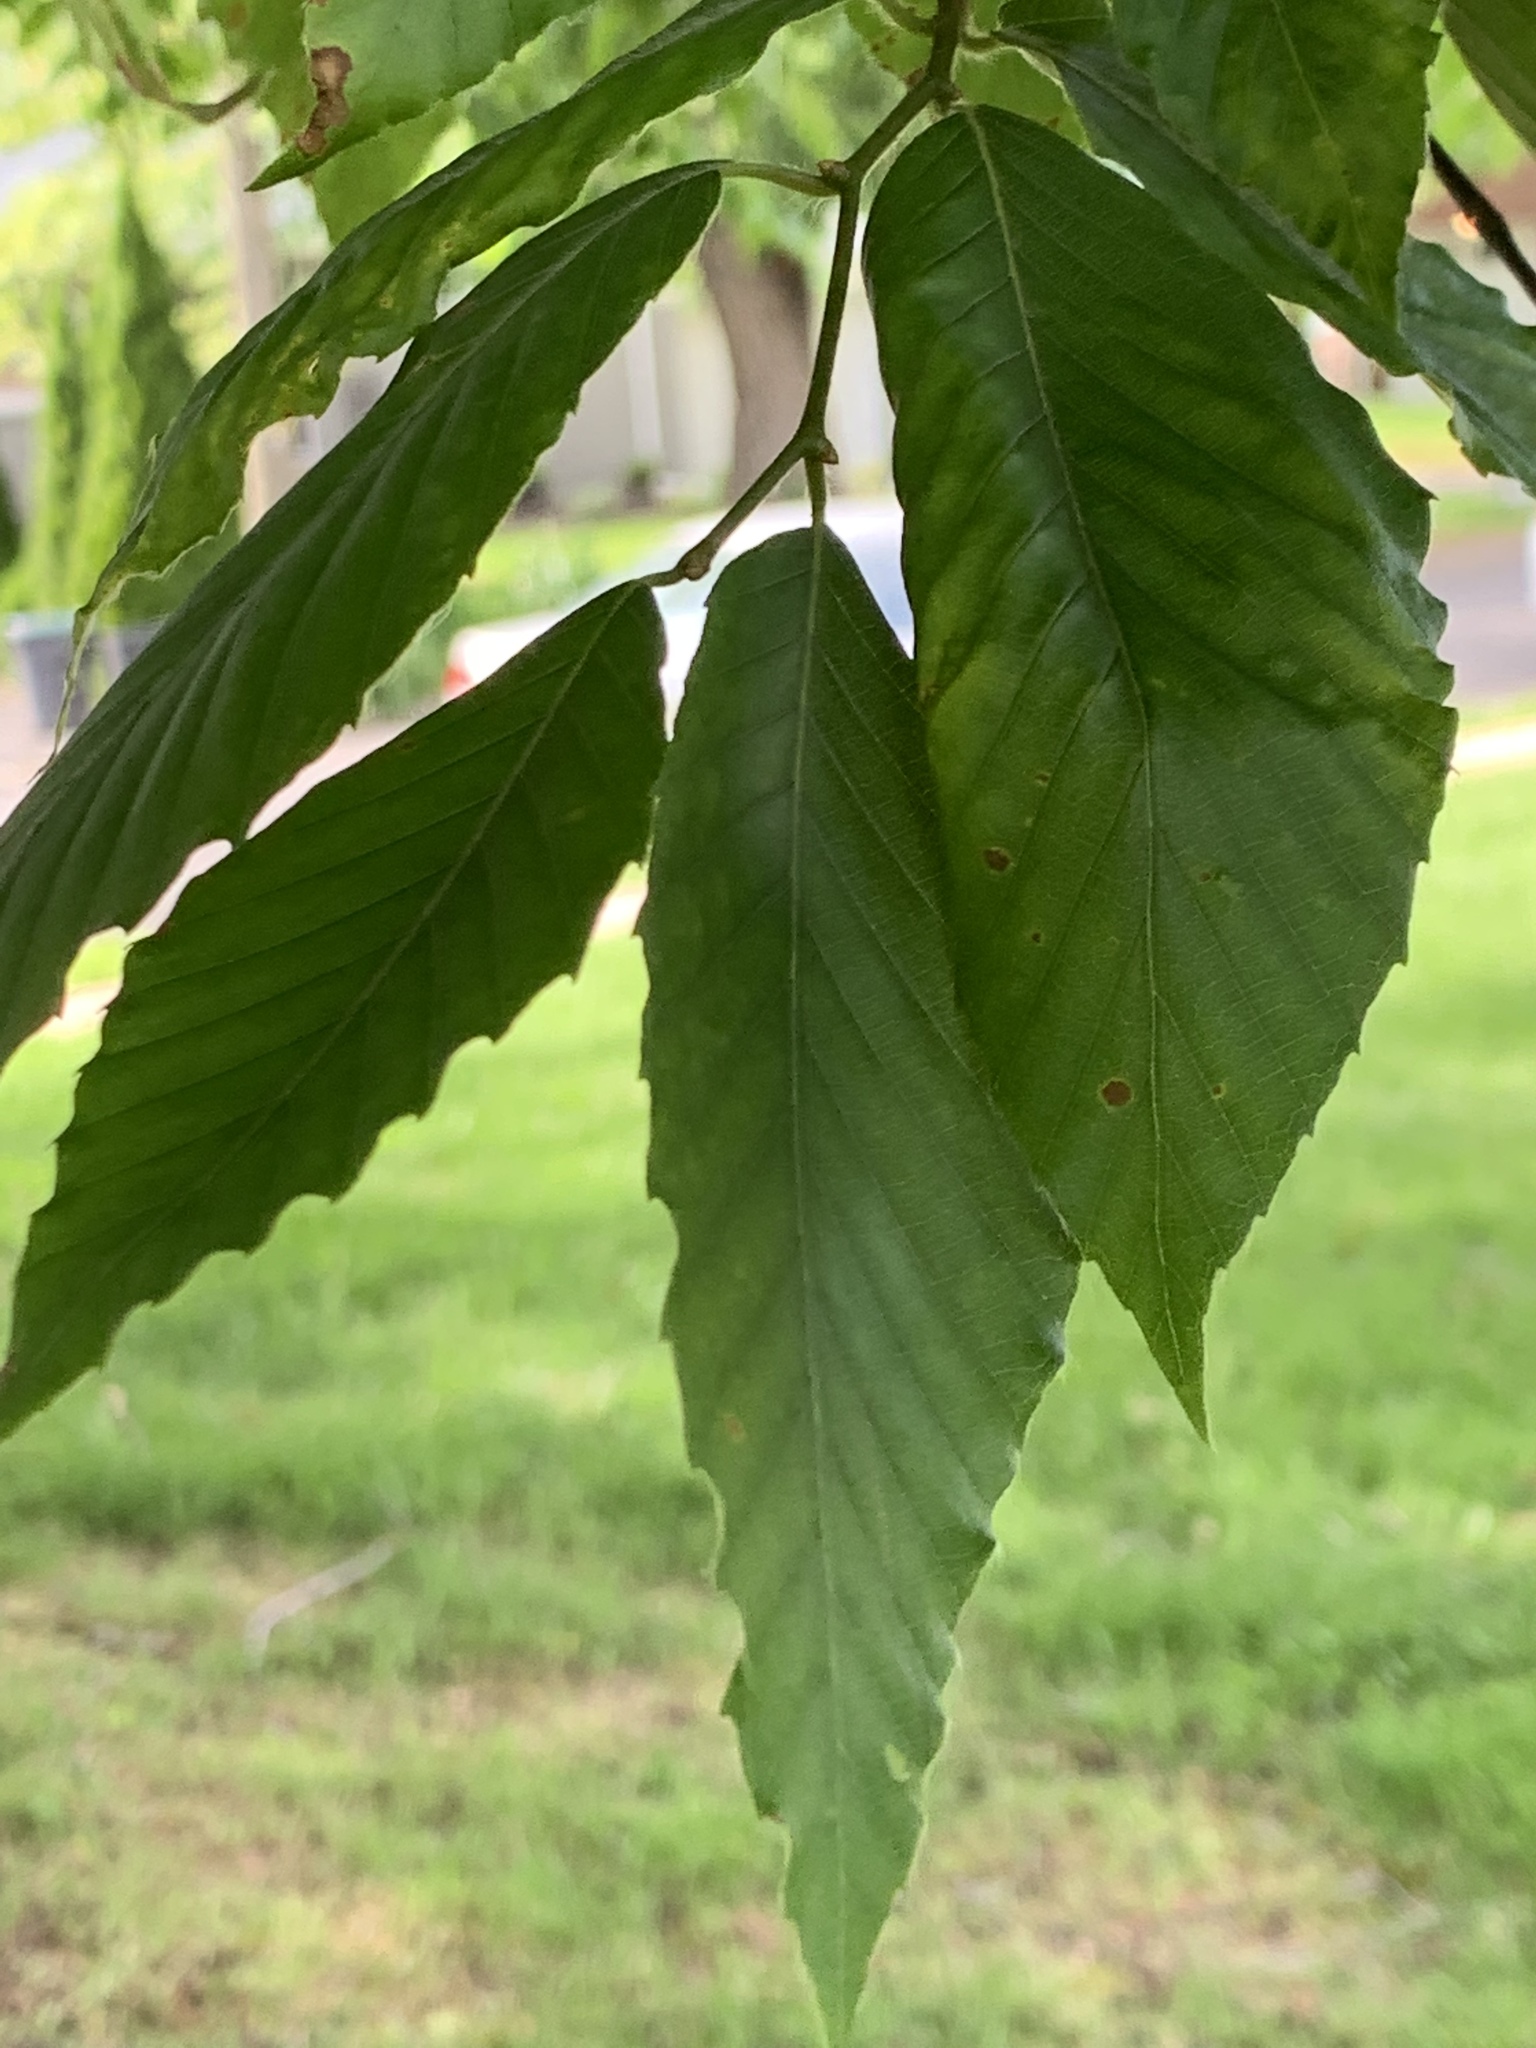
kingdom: Plantae
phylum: Tracheophyta
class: Magnoliopsida
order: Fagales
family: Fagaceae
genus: Fagus
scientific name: Fagus grandifolia
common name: American beech
